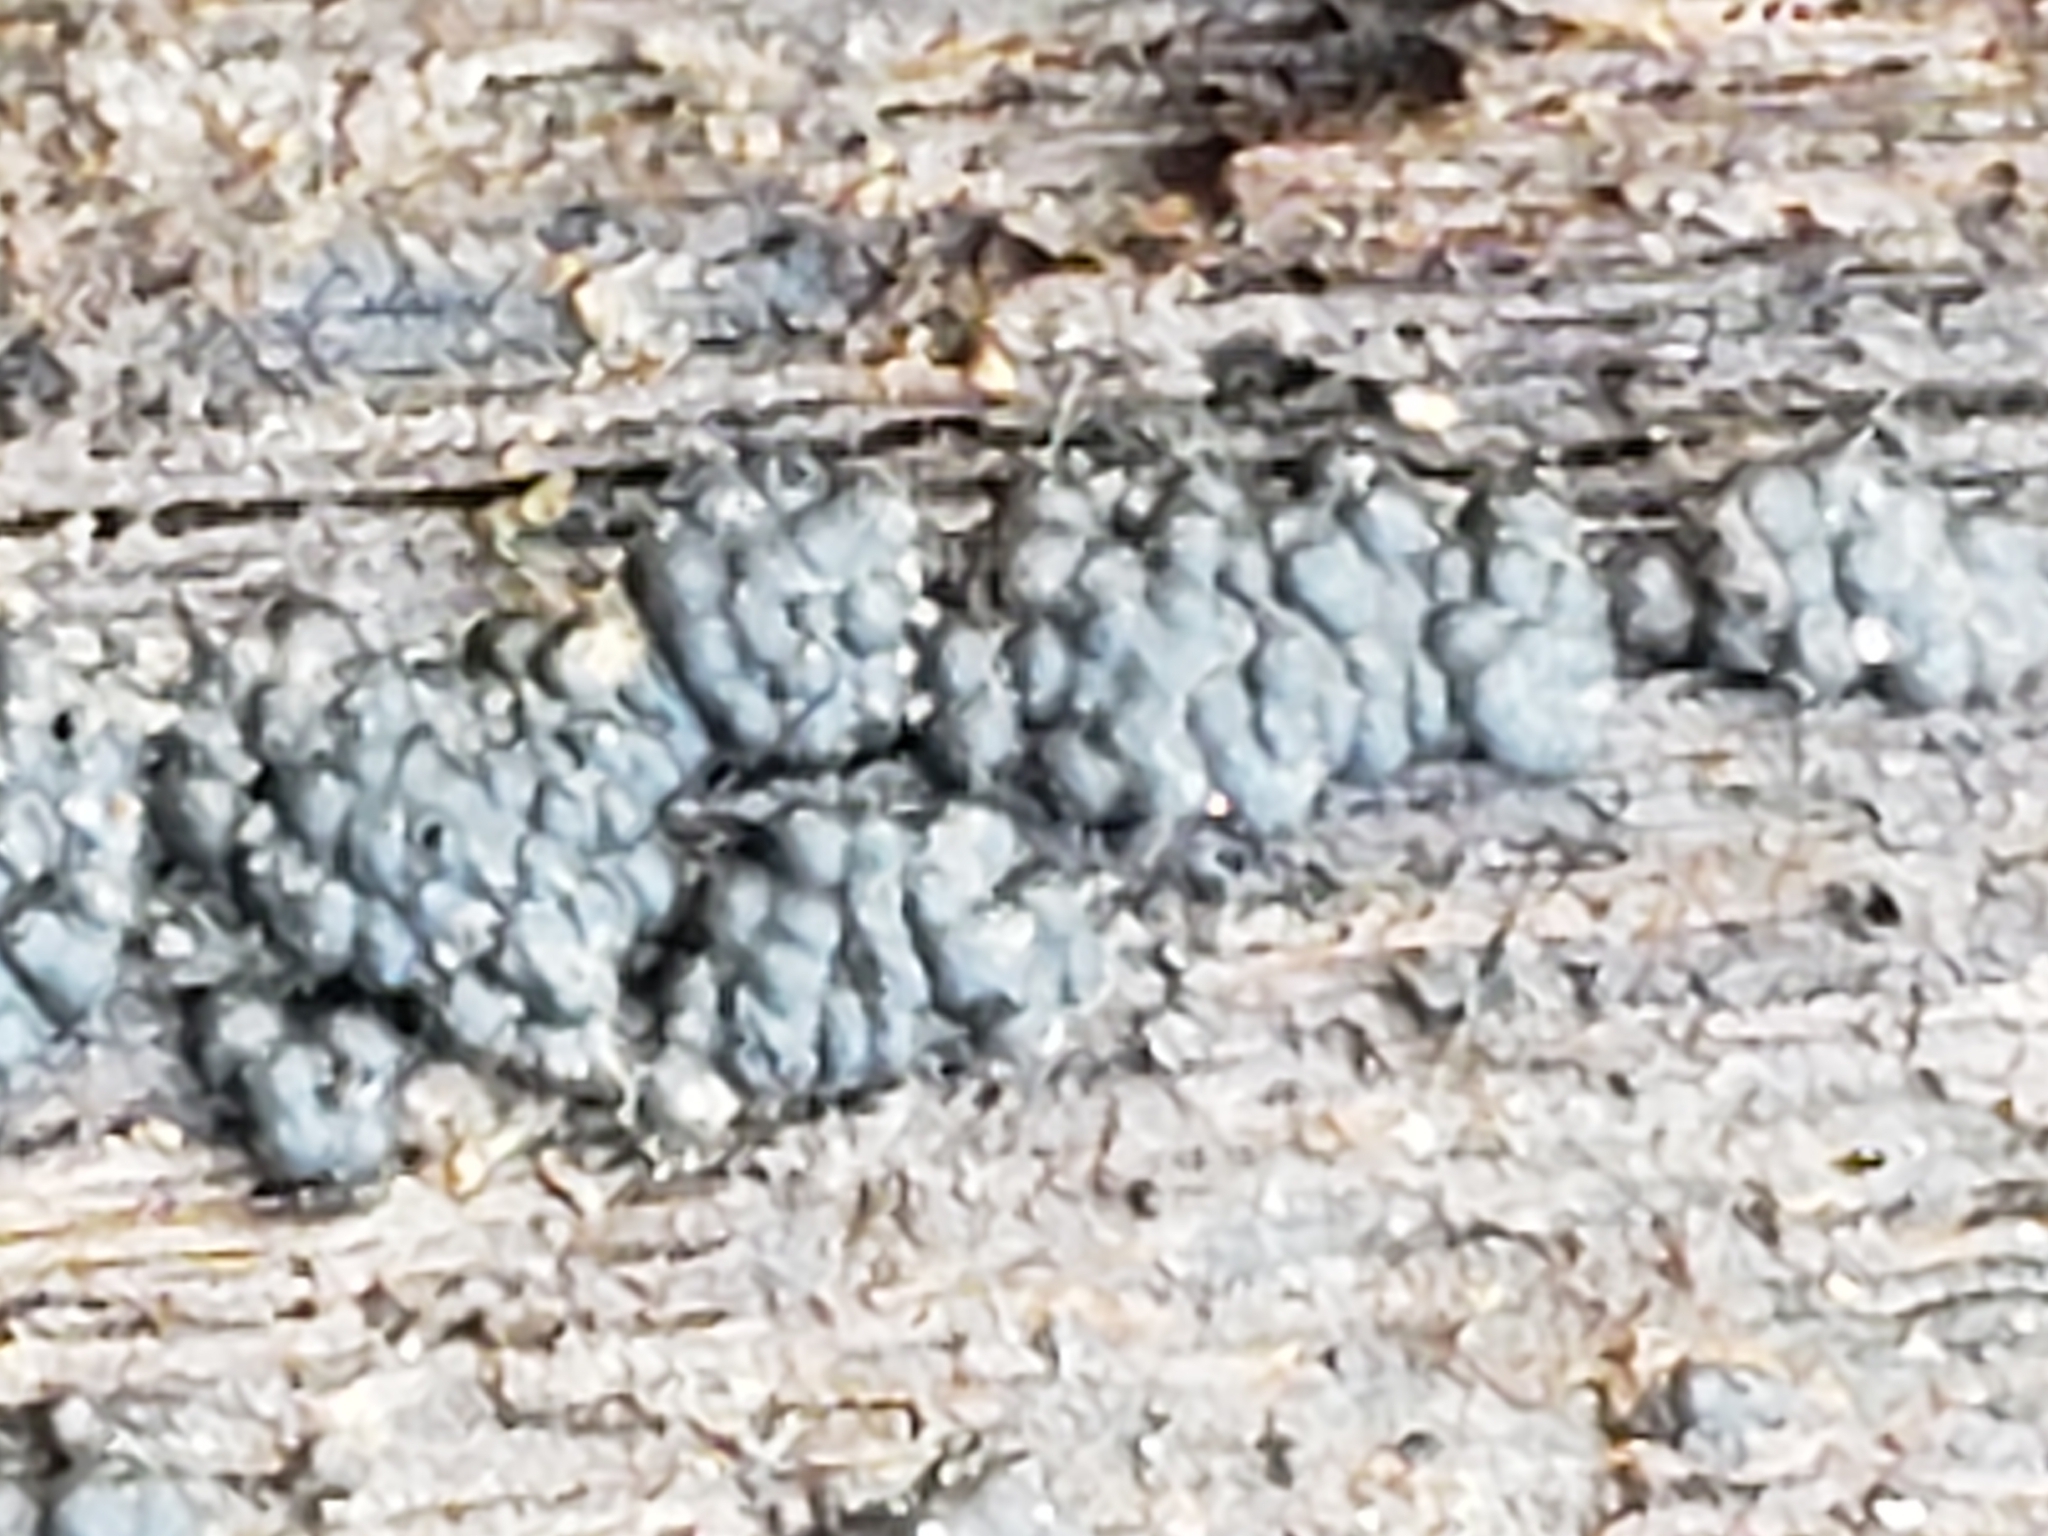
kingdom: Fungi
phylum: Basidiomycota
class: Agaricomycetes
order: Russulales
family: Stereaceae
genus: Xylobolus
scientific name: Xylobolus frustulatus
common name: Ceramic parchment
